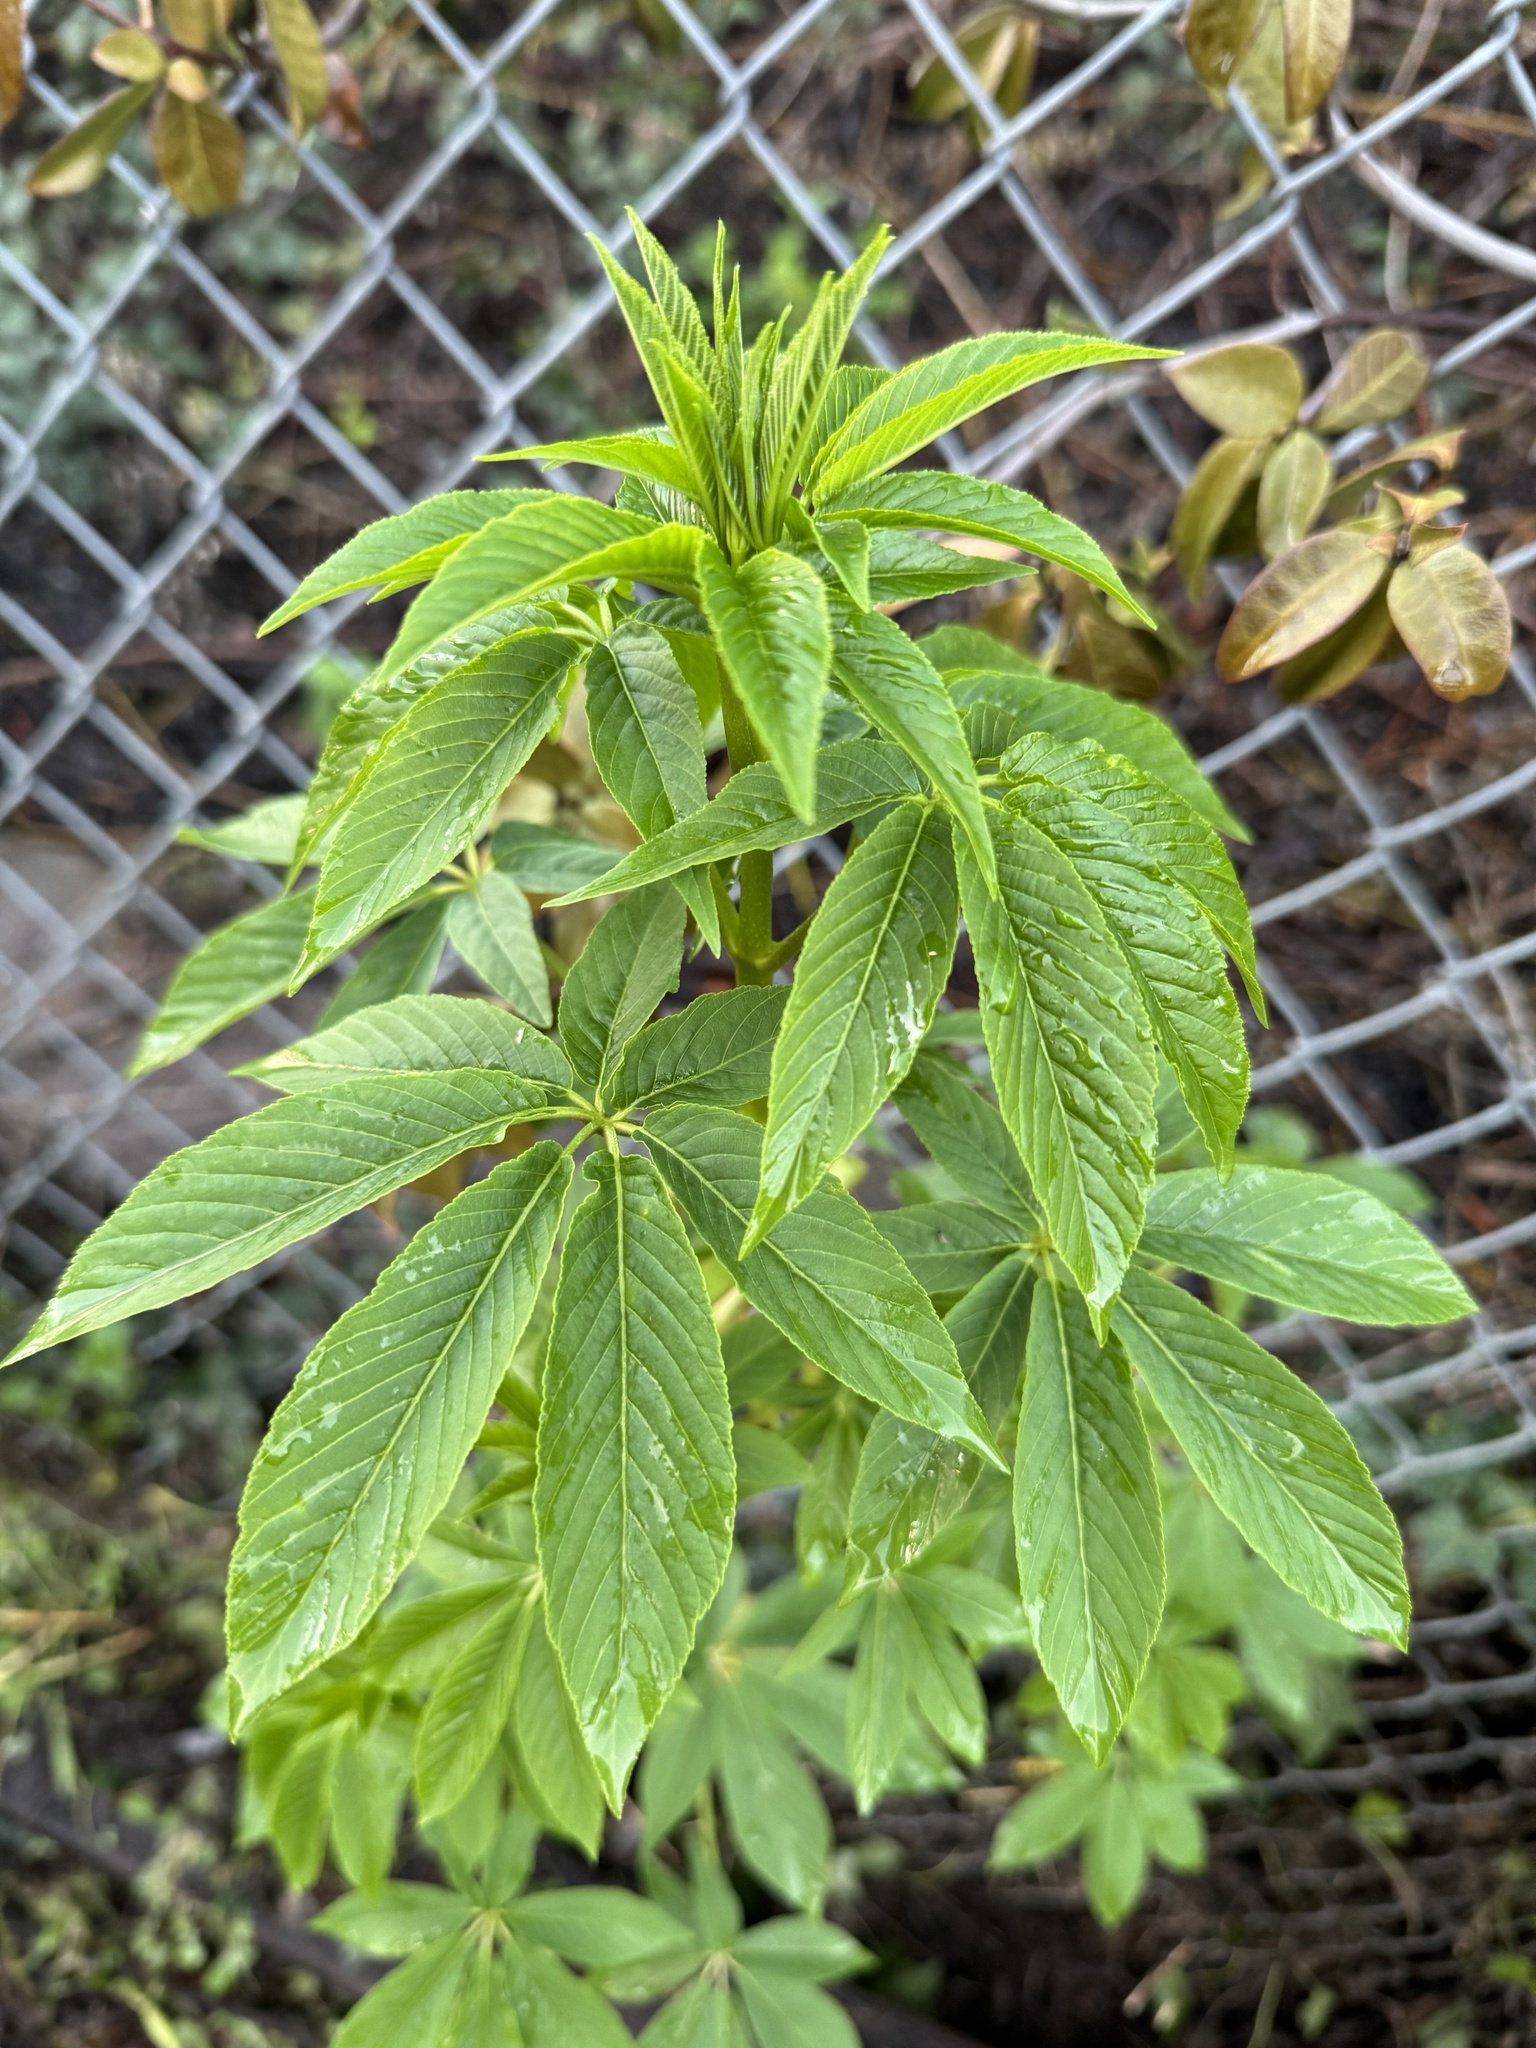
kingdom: Plantae
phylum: Tracheophyta
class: Magnoliopsida
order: Sapindales
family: Sapindaceae
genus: Aesculus
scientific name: Aesculus californica
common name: California buckeye
